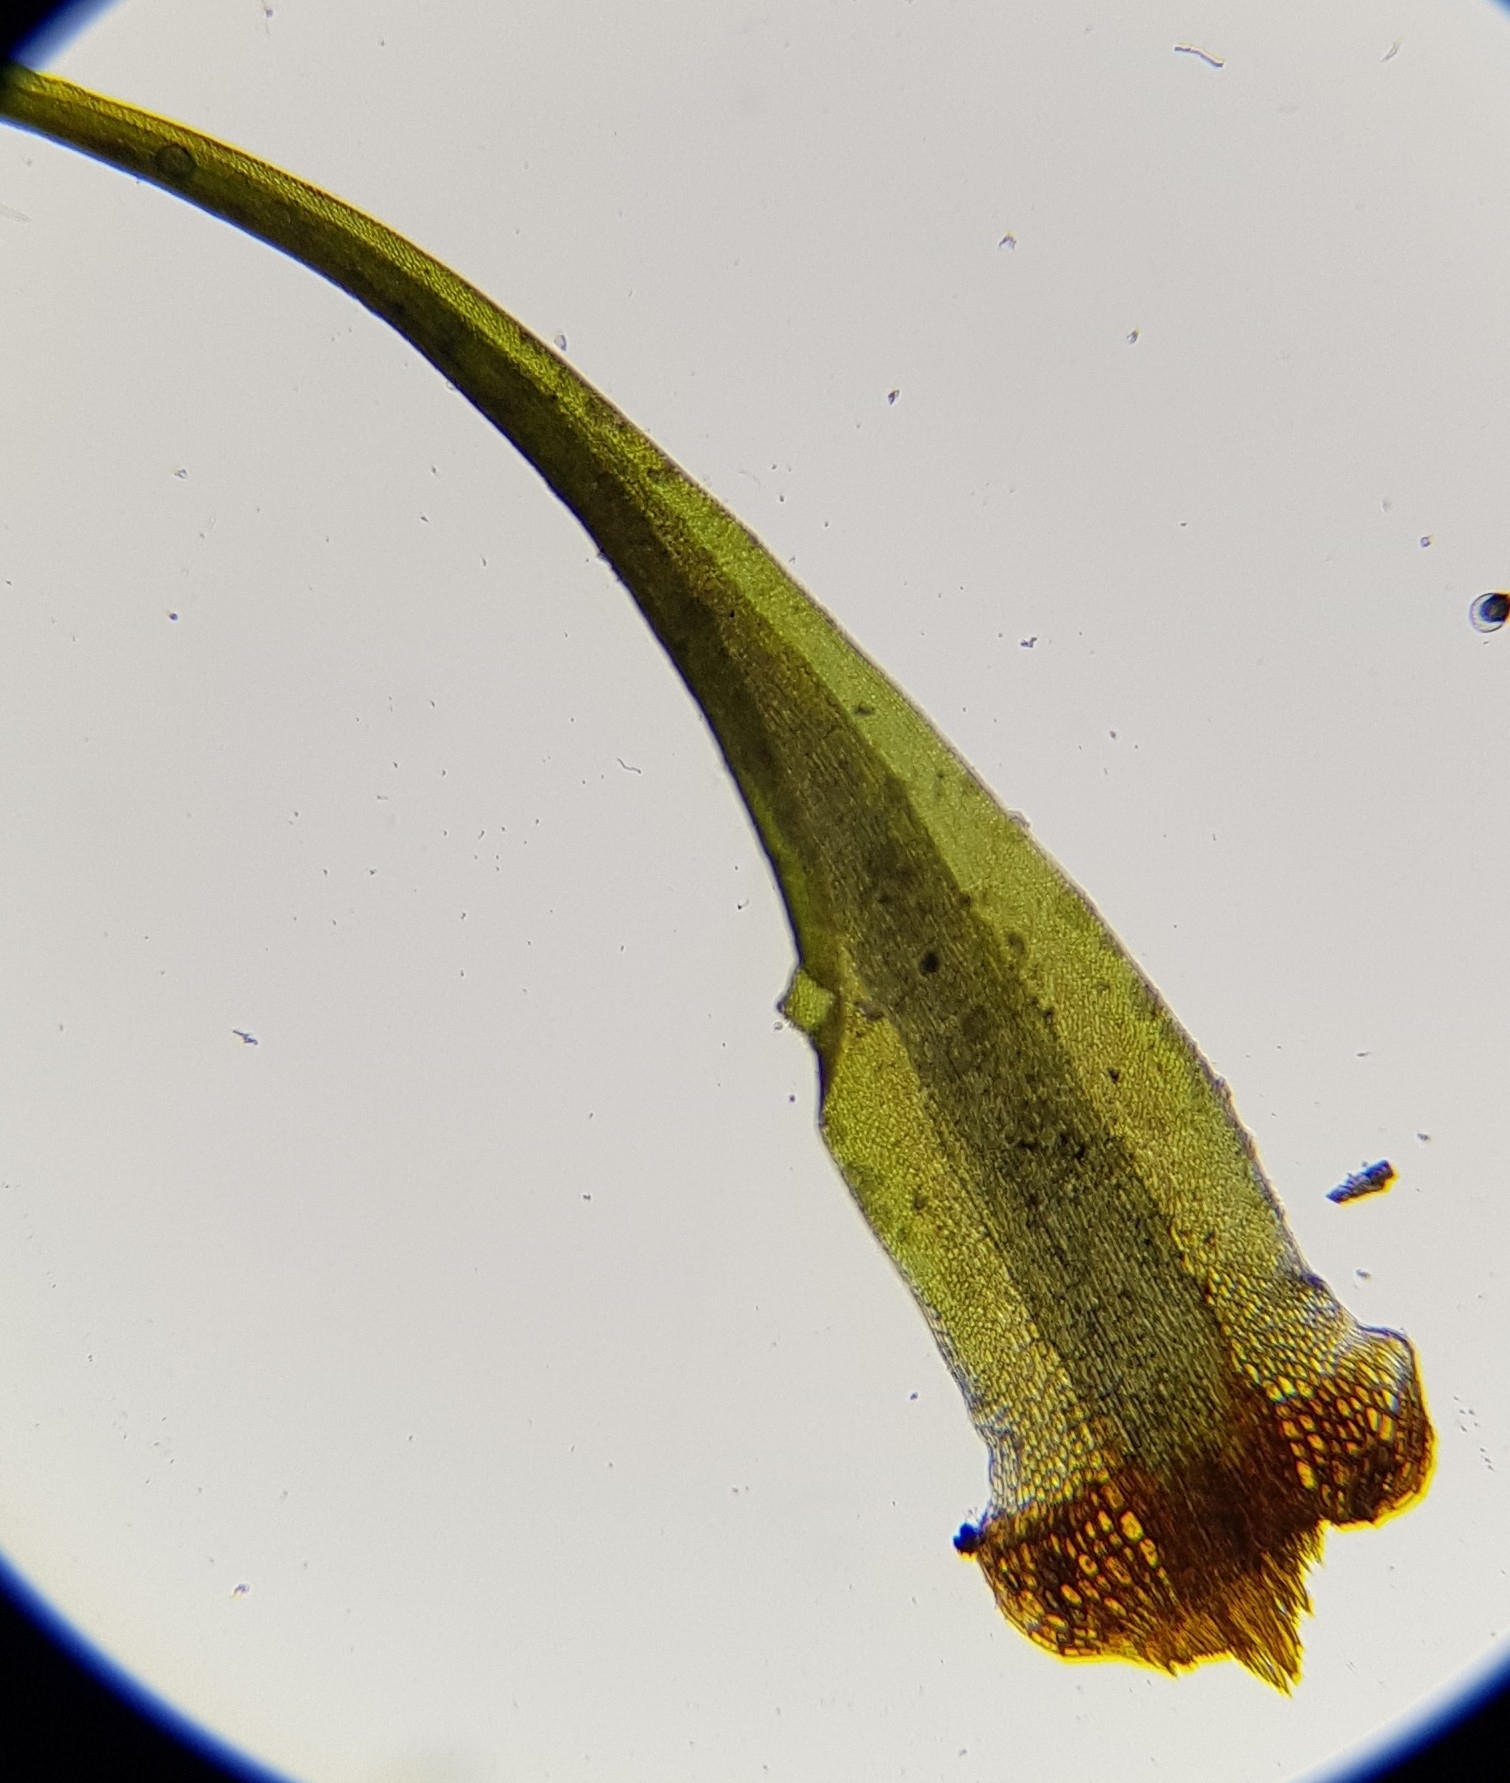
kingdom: Plantae
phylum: Bryophyta
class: Bryopsida
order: Dicranales
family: Leucobryaceae
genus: Campylopus
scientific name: Campylopus flexuosus
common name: Rusty swan-neck moss
